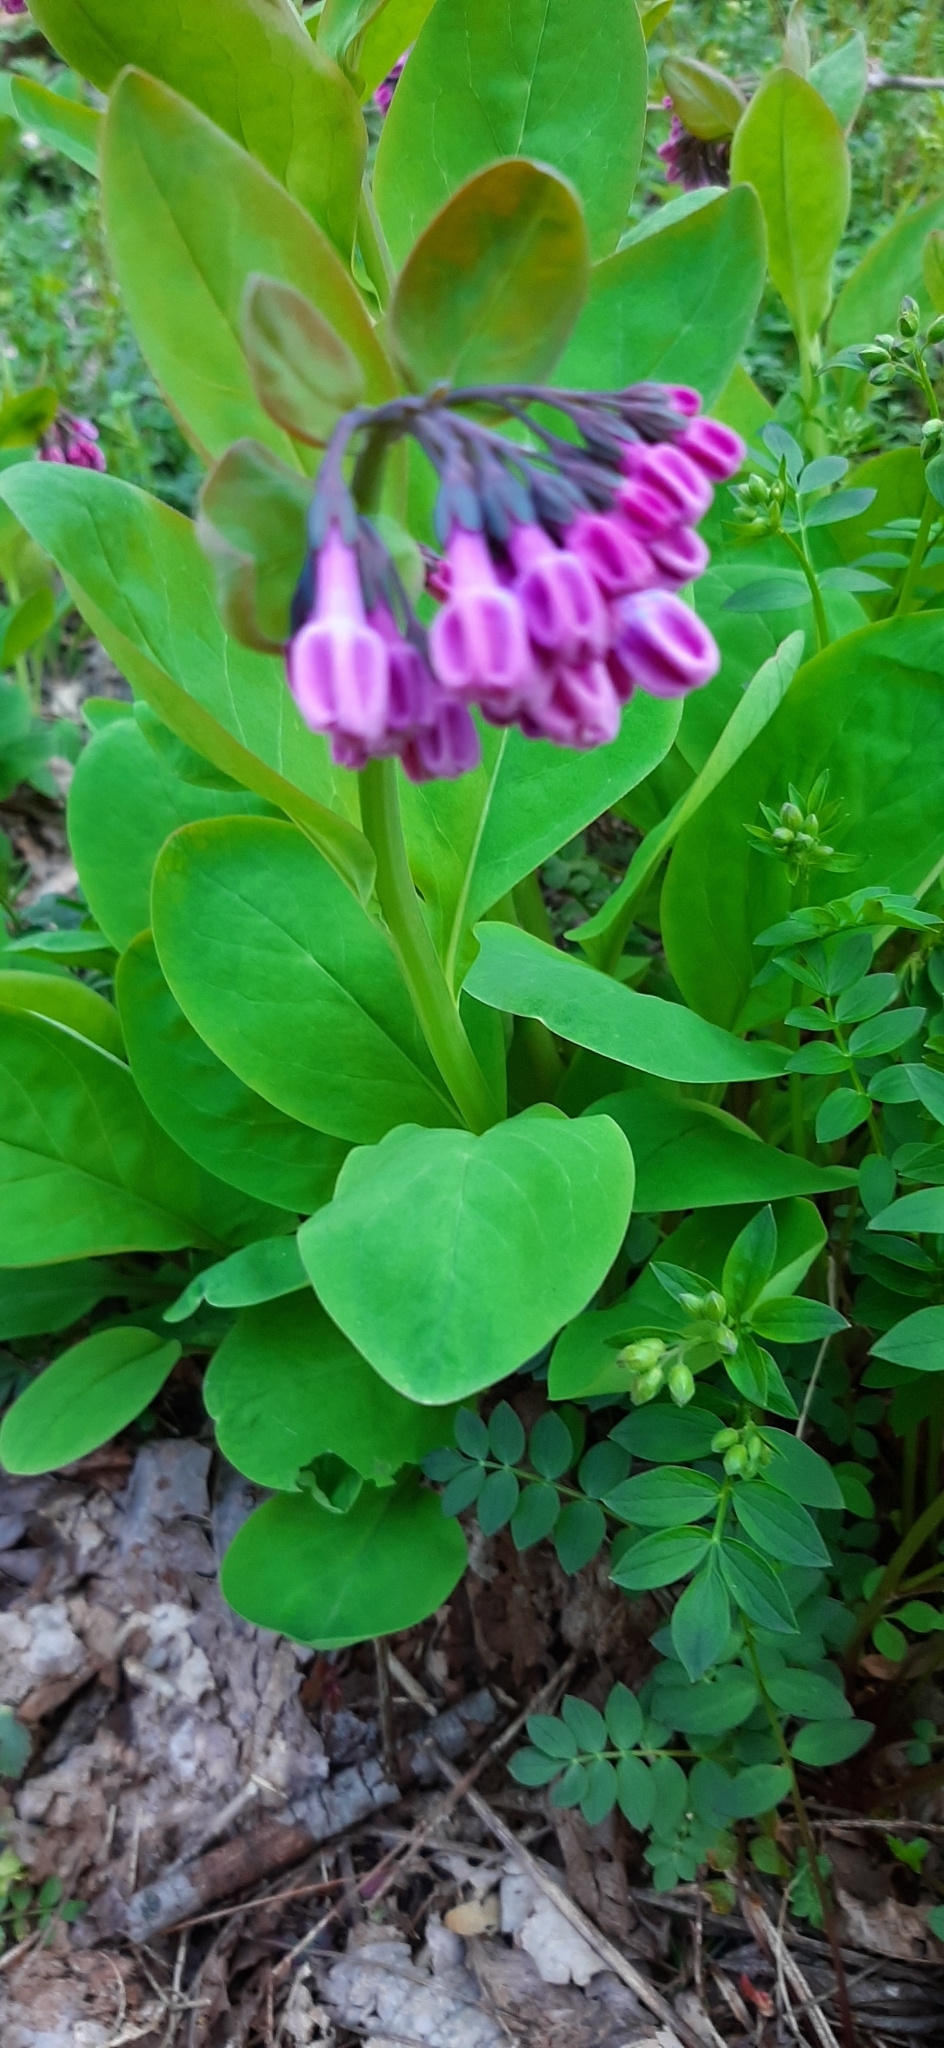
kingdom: Plantae
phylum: Tracheophyta
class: Magnoliopsida
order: Boraginales
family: Boraginaceae
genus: Mertensia
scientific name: Mertensia virginica
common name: Virginia bluebells
